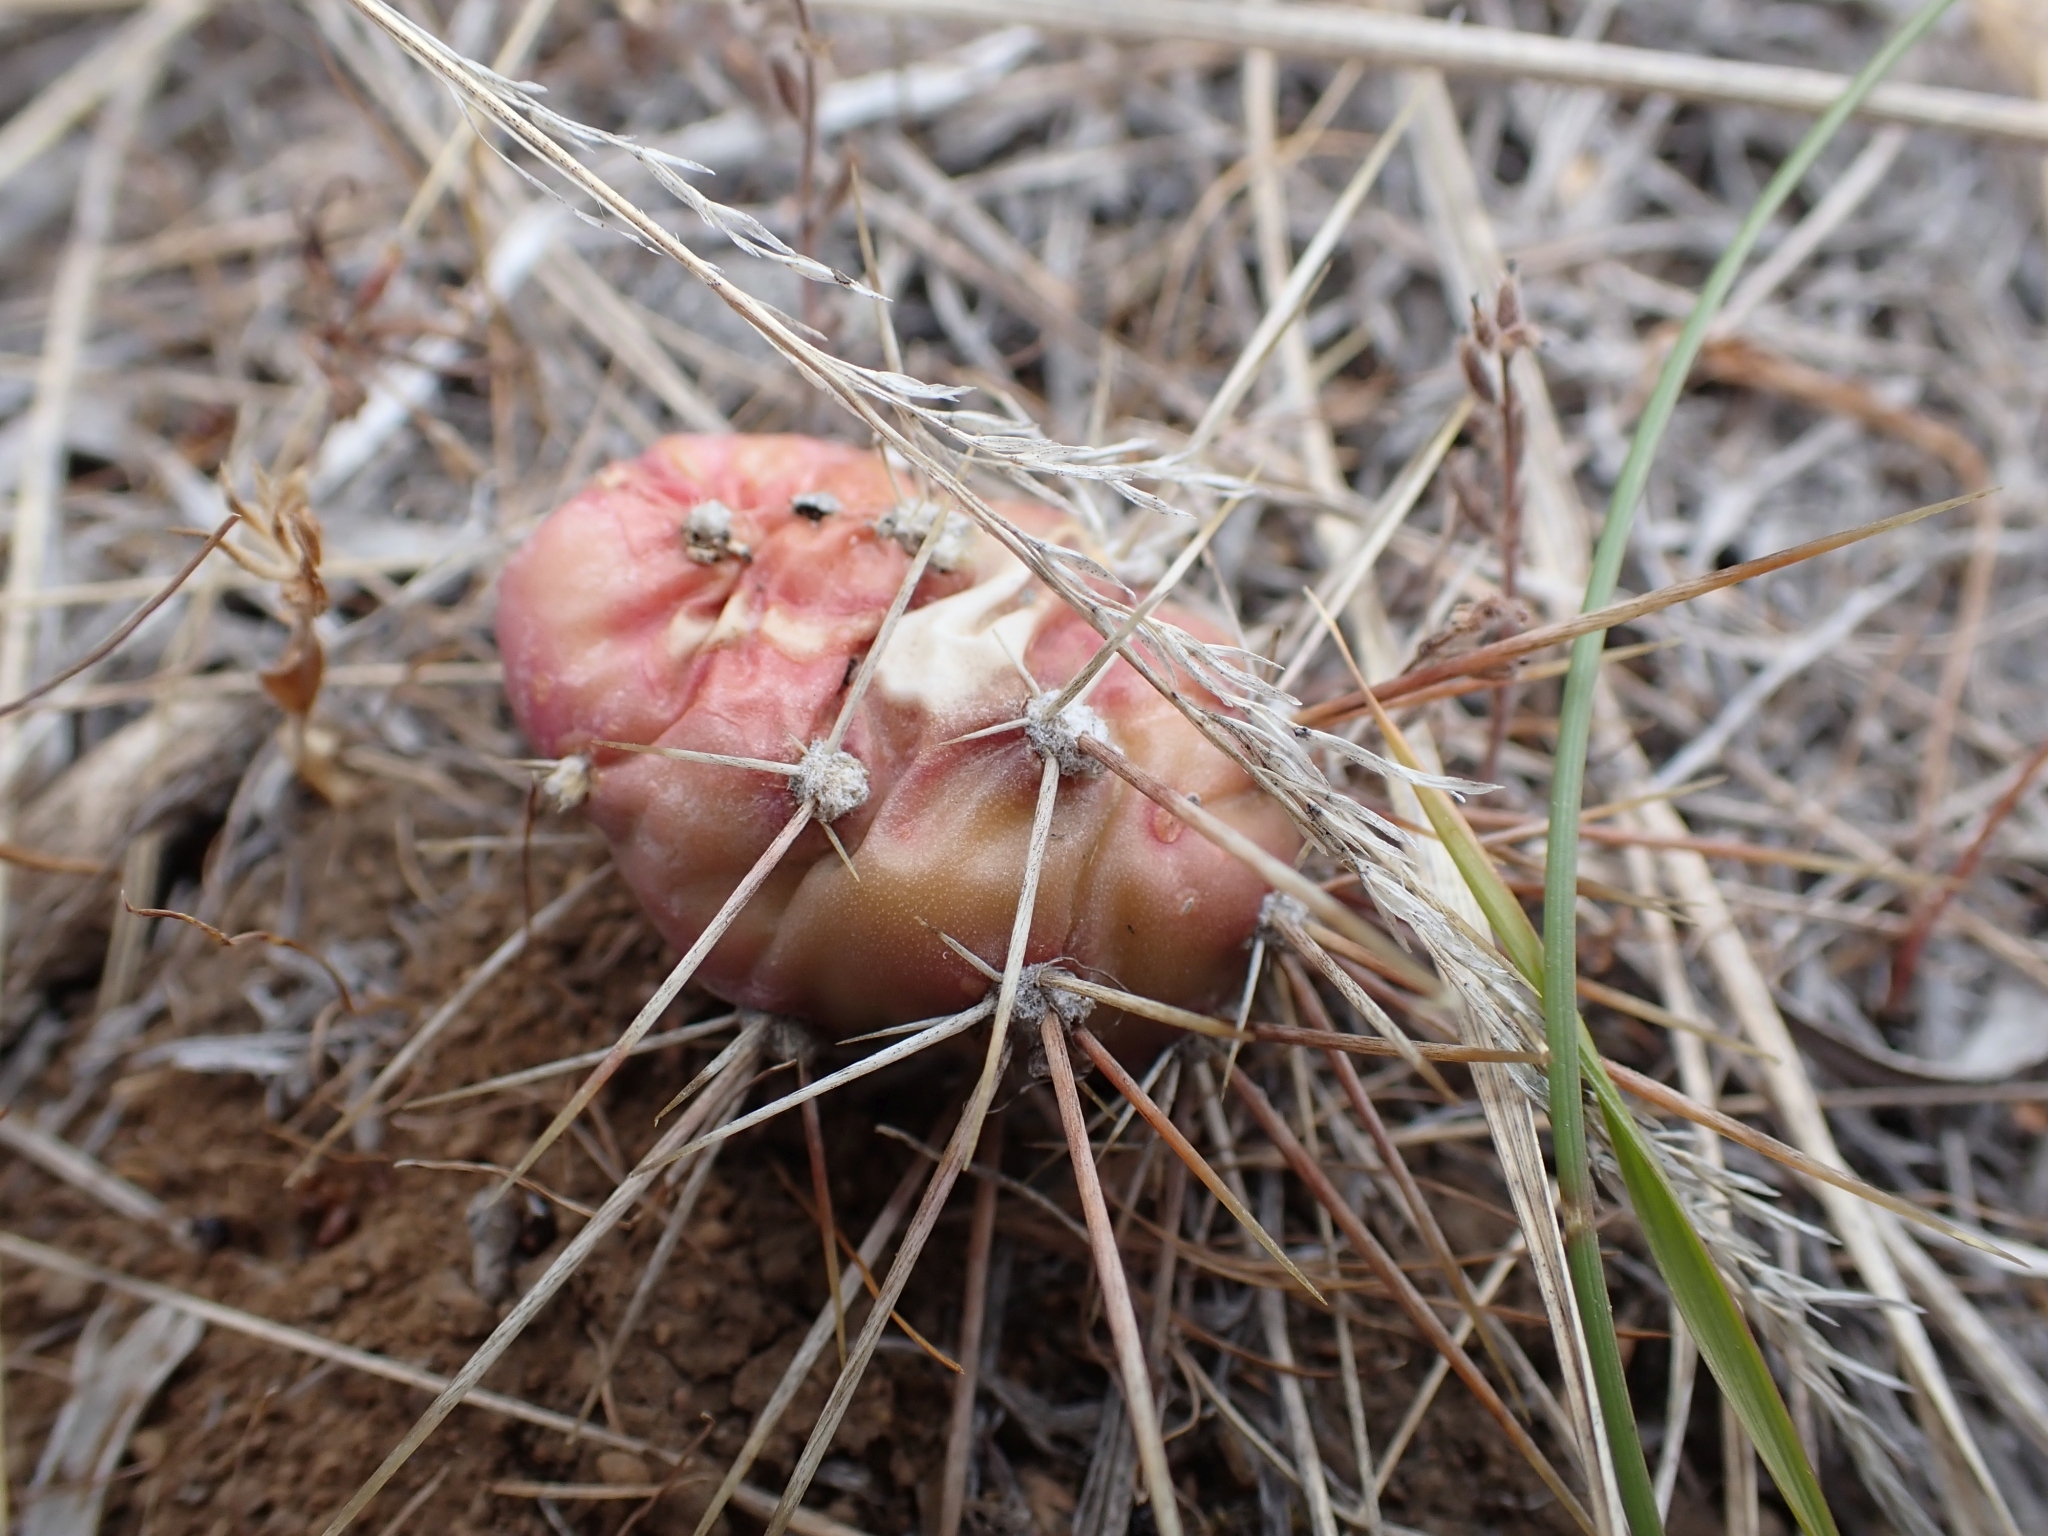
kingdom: Plantae
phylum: Tracheophyta
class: Magnoliopsida
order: Caryophyllales
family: Cactaceae
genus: Opuntia
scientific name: Opuntia fragilis
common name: Brittle cactus
